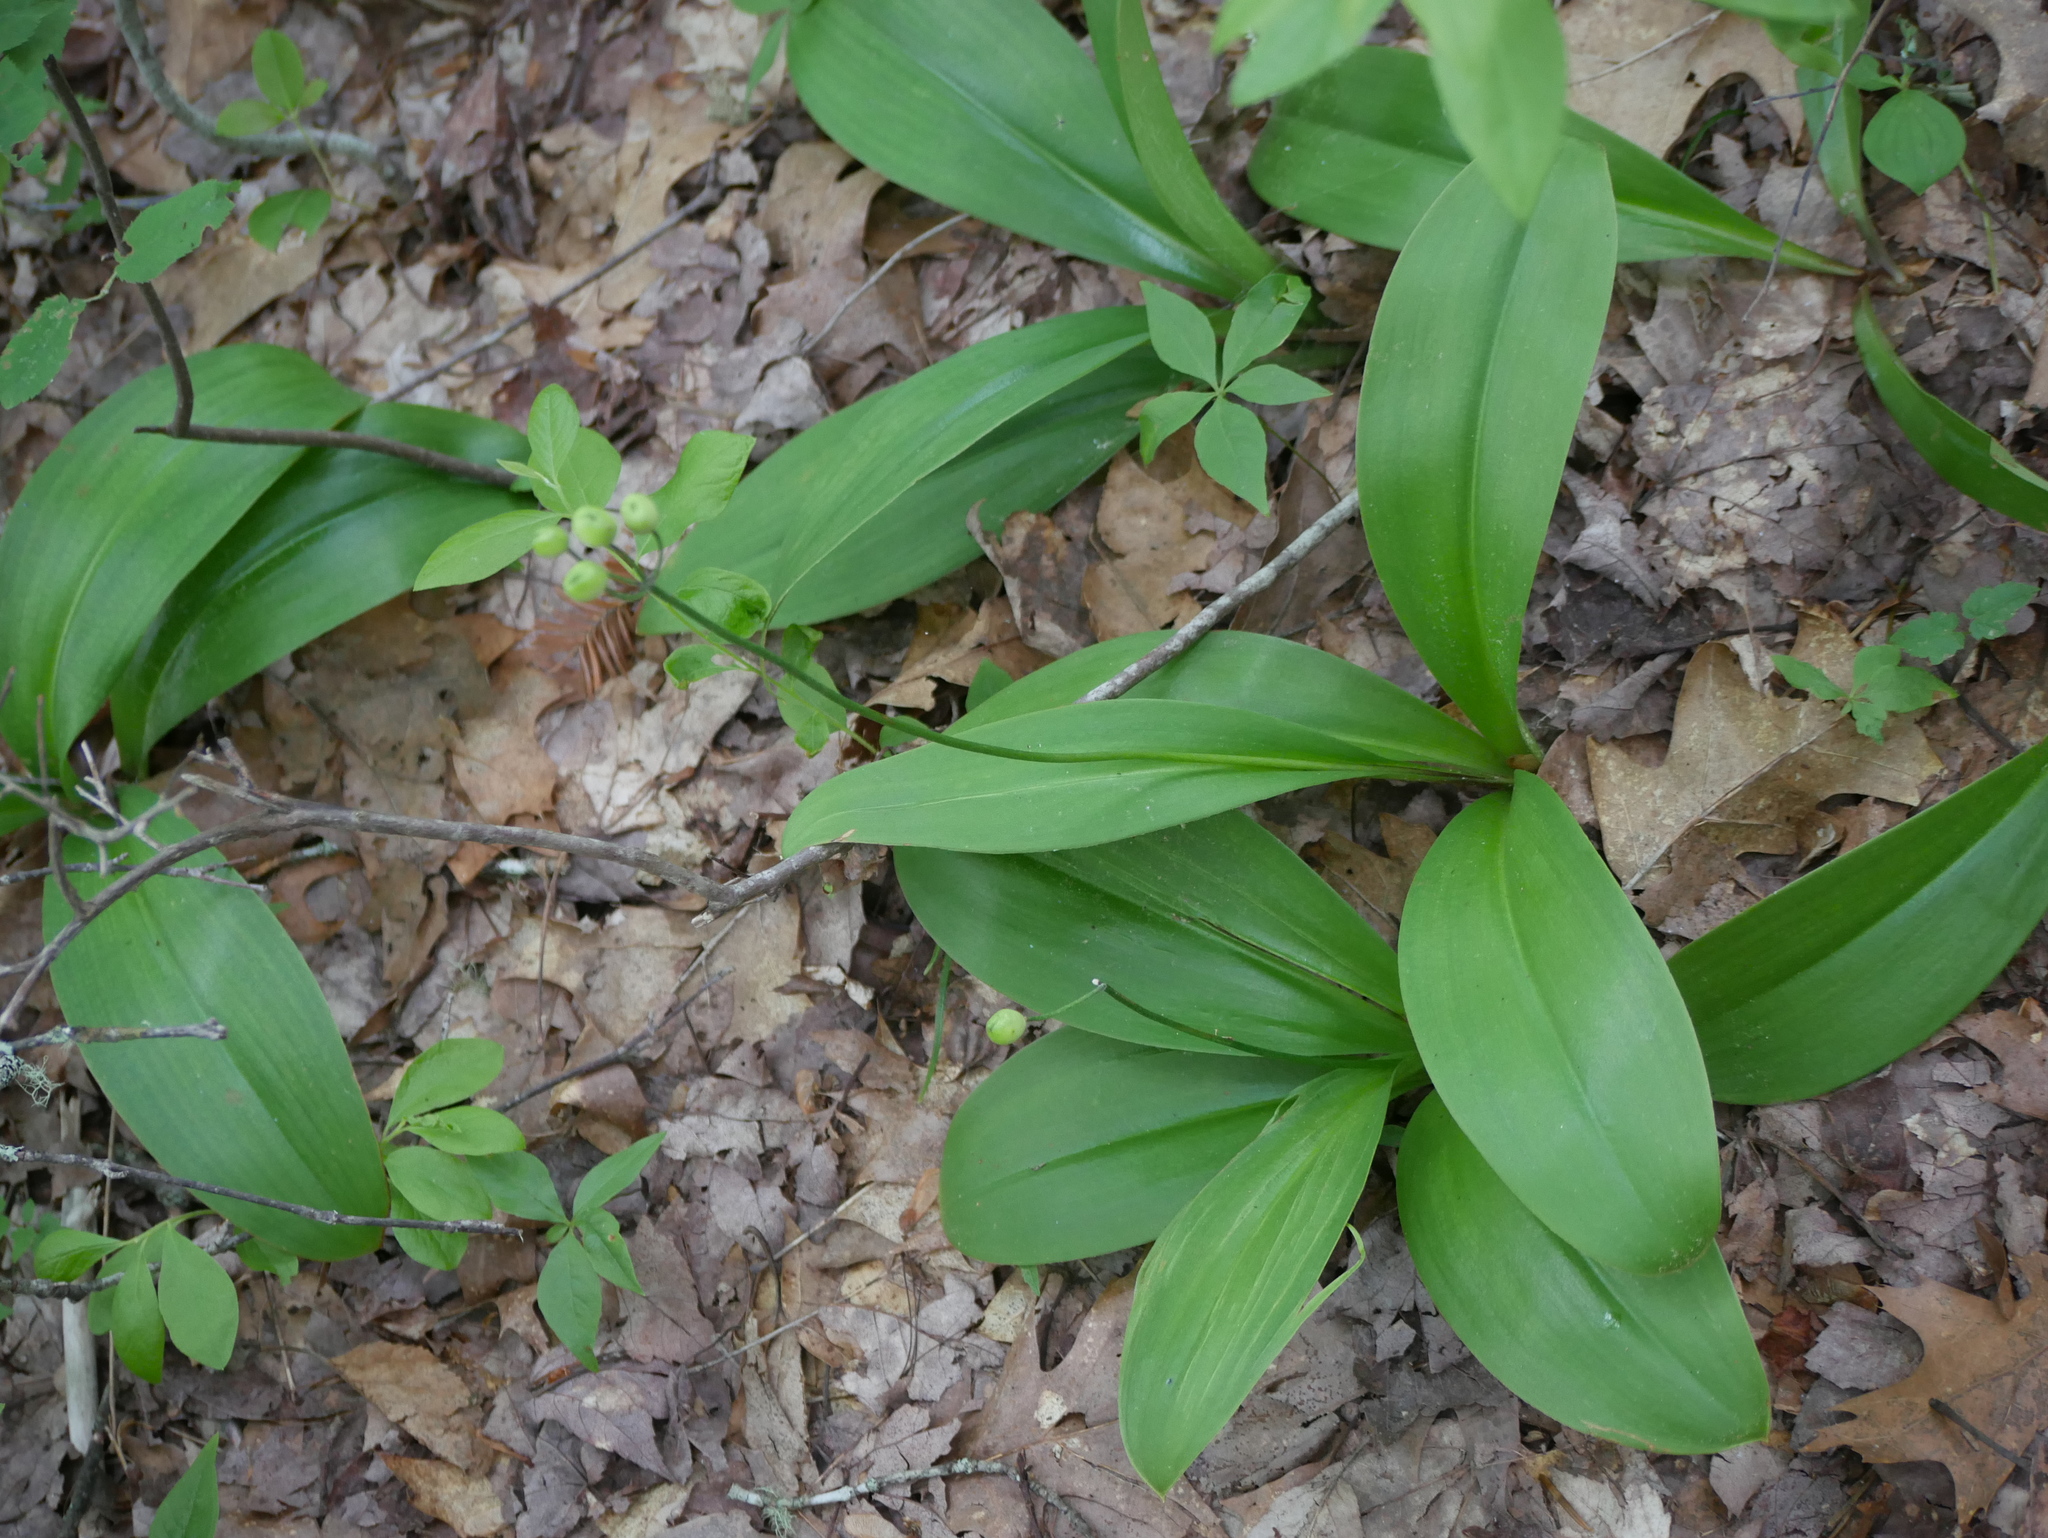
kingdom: Plantae
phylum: Tracheophyta
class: Liliopsida
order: Liliales
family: Liliaceae
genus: Clintonia
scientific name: Clintonia borealis
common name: Yellow clintonia
